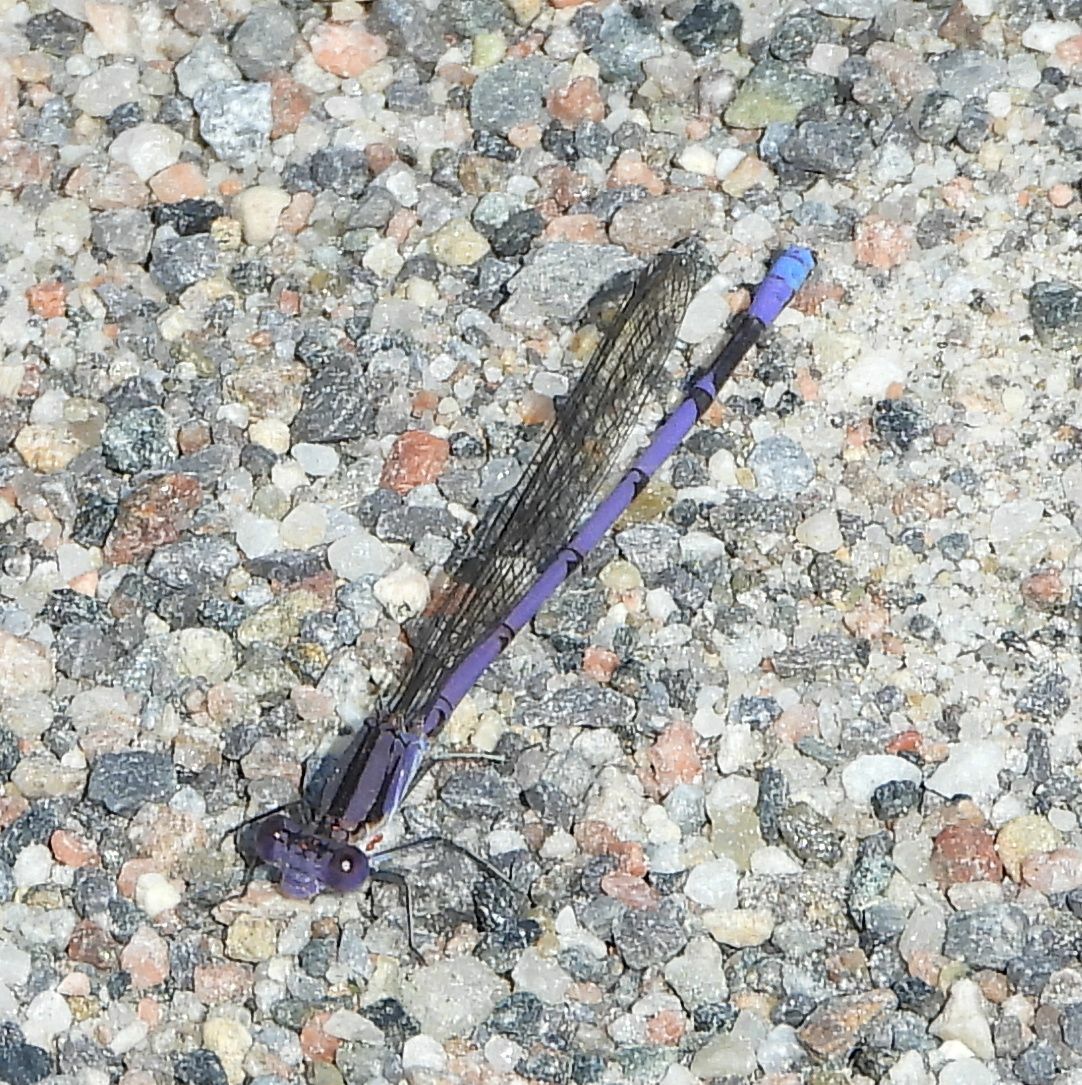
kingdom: Animalia
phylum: Arthropoda
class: Insecta
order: Odonata
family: Coenagrionidae
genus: Argia
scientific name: Argia fumipennis
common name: Variable dancer
